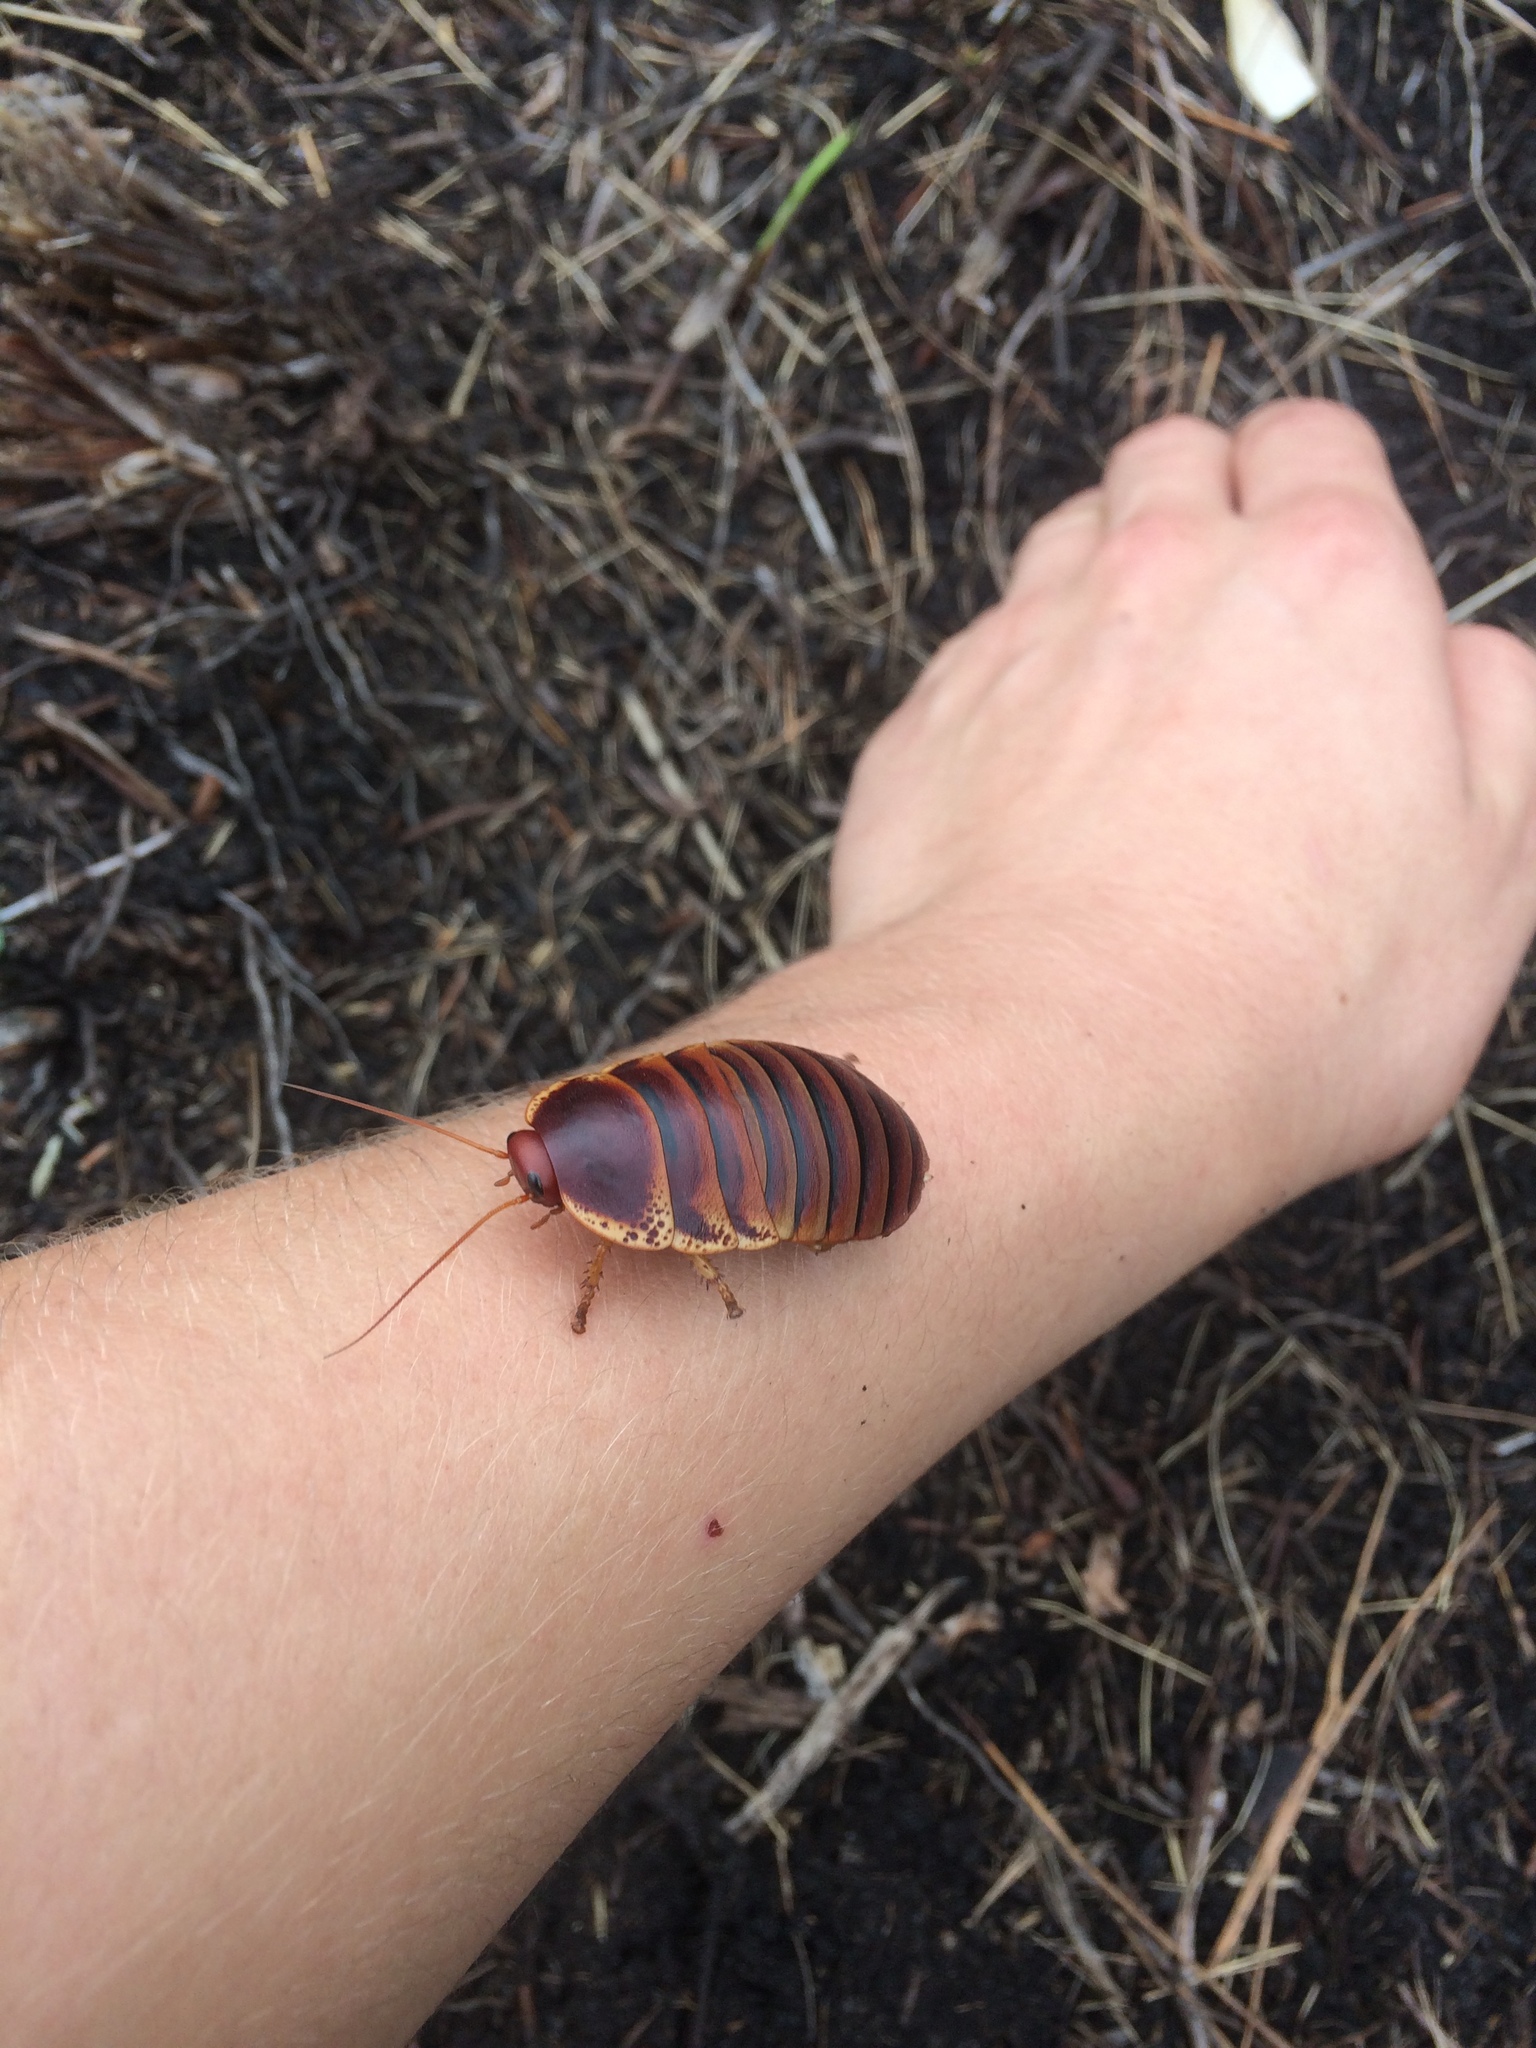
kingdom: Animalia
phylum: Arthropoda
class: Insecta
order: Blattodea
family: Blaberidae
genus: Aptera
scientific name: Aptera fusca
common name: Cape mountain cockroach
